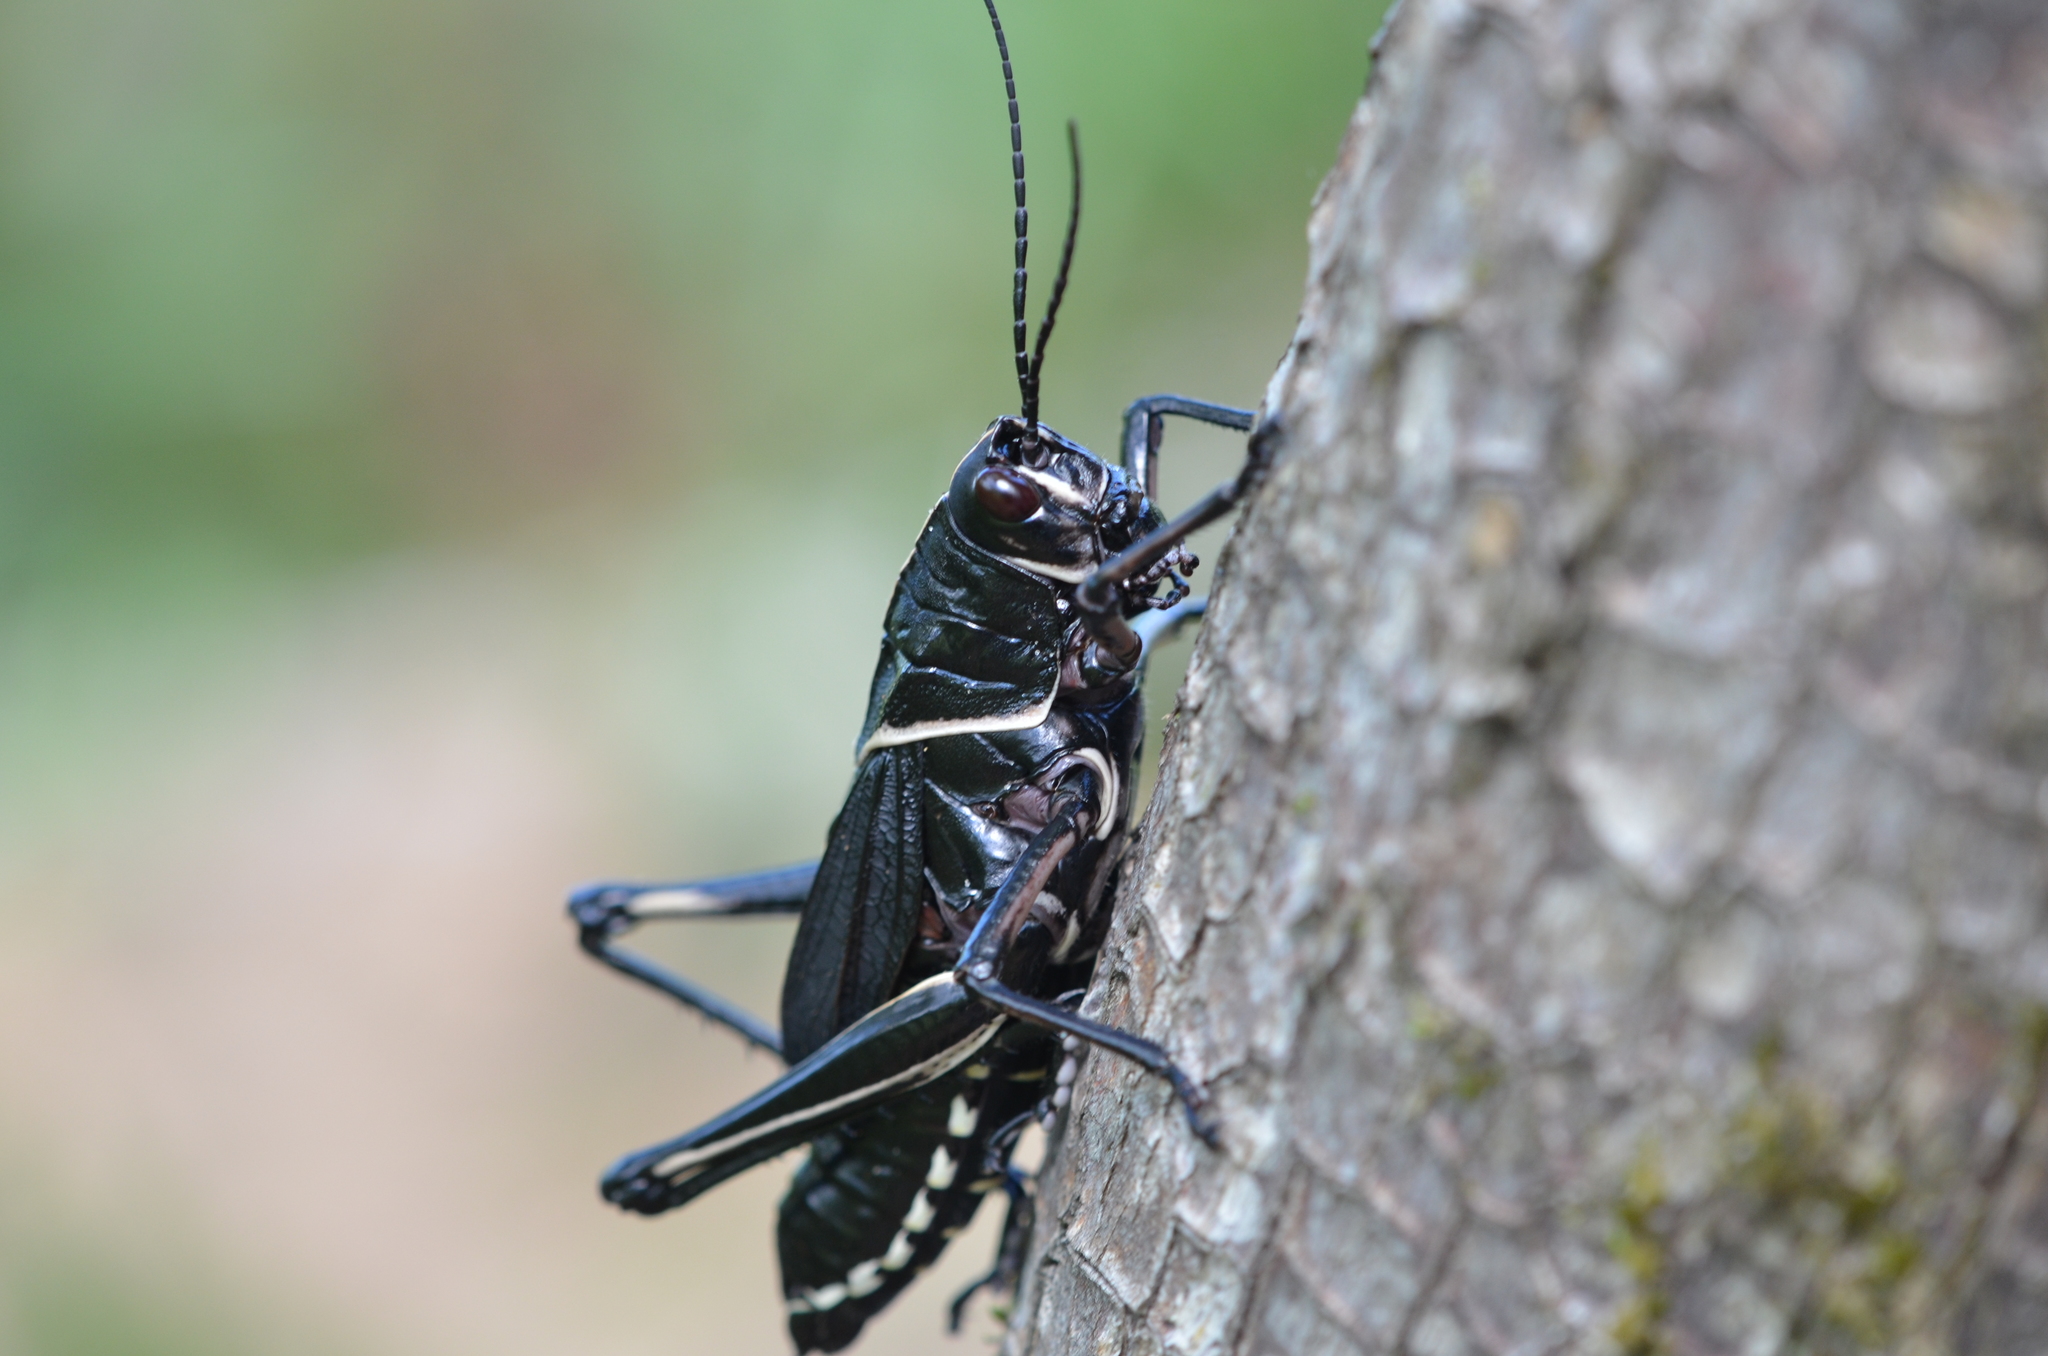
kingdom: Animalia
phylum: Arthropoda
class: Insecta
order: Orthoptera
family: Romaleidae
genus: Romalea
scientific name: Romalea microptera
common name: Eastern lubber grasshopper
